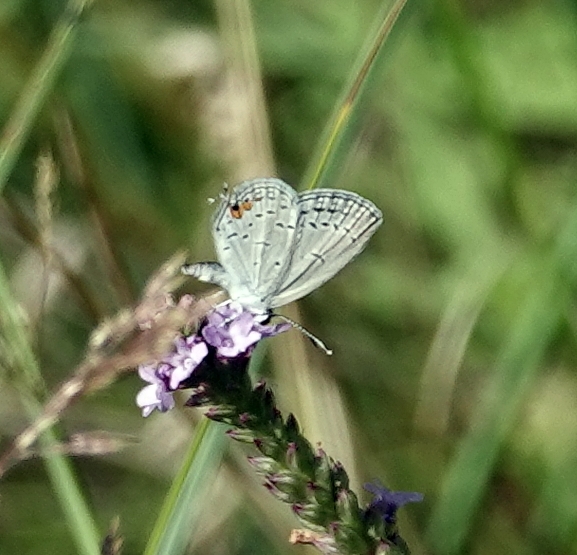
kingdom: Animalia
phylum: Arthropoda
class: Insecta
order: Lepidoptera
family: Lycaenidae
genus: Elkalyce
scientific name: Elkalyce comyntas
